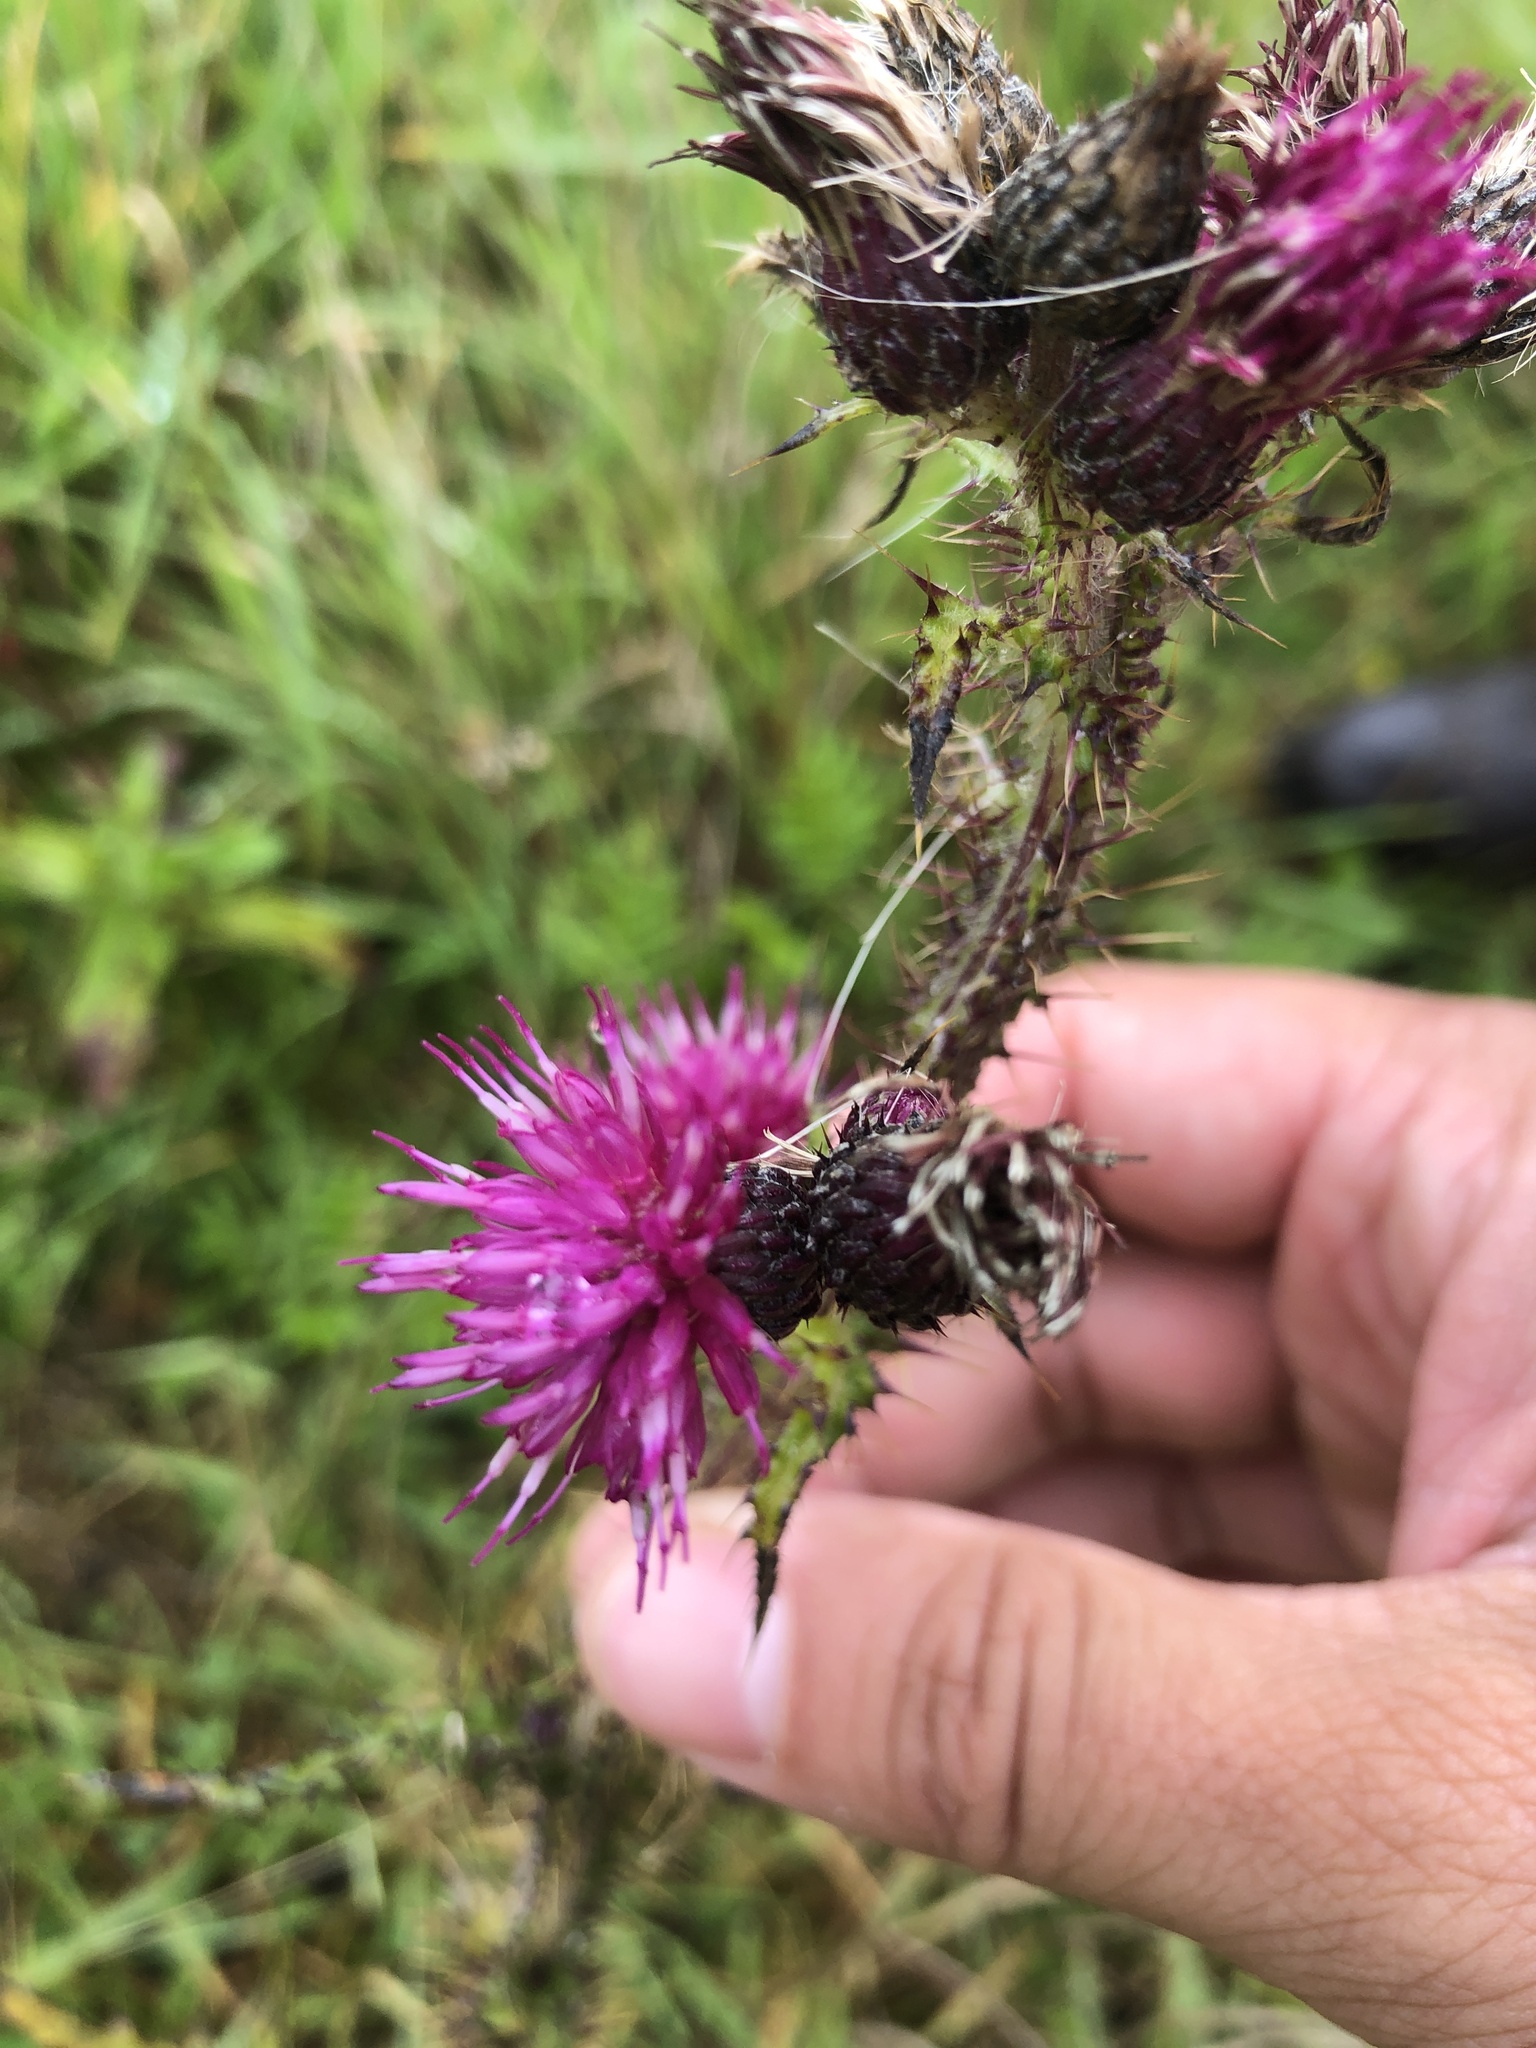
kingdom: Plantae
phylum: Tracheophyta
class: Magnoliopsida
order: Asterales
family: Asteraceae
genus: Cirsium
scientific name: Cirsium palustre
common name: Marsh thistle
